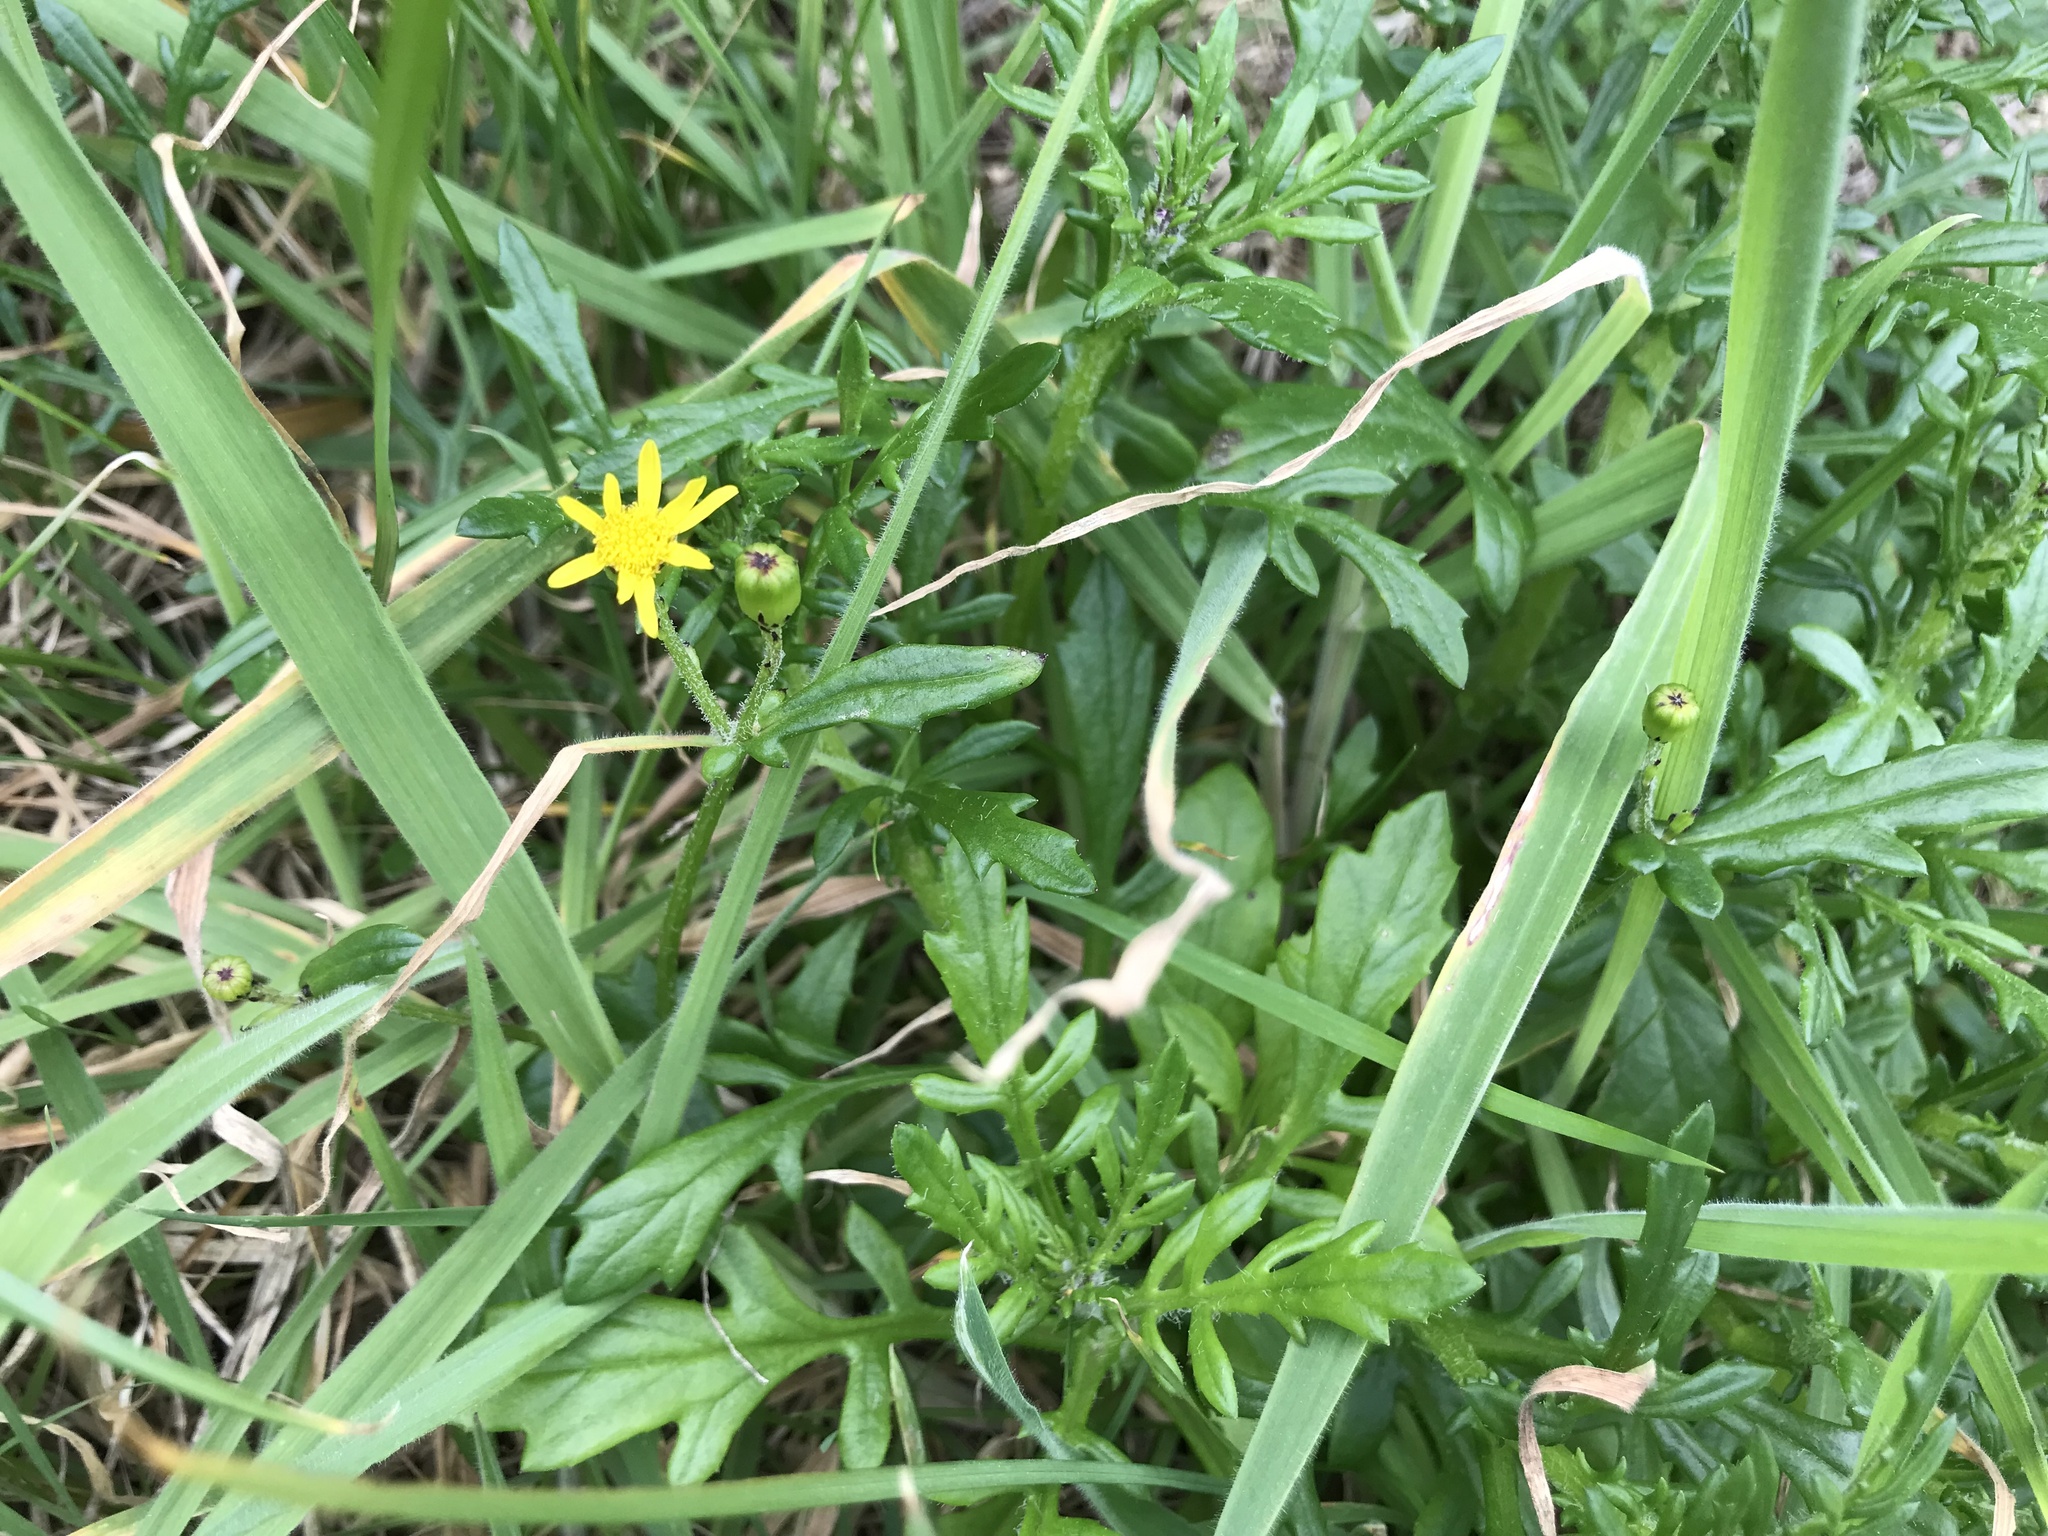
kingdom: Plantae
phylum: Tracheophyta
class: Magnoliopsida
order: Asterales
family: Asteraceae
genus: Senecio
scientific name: Senecio lautus
